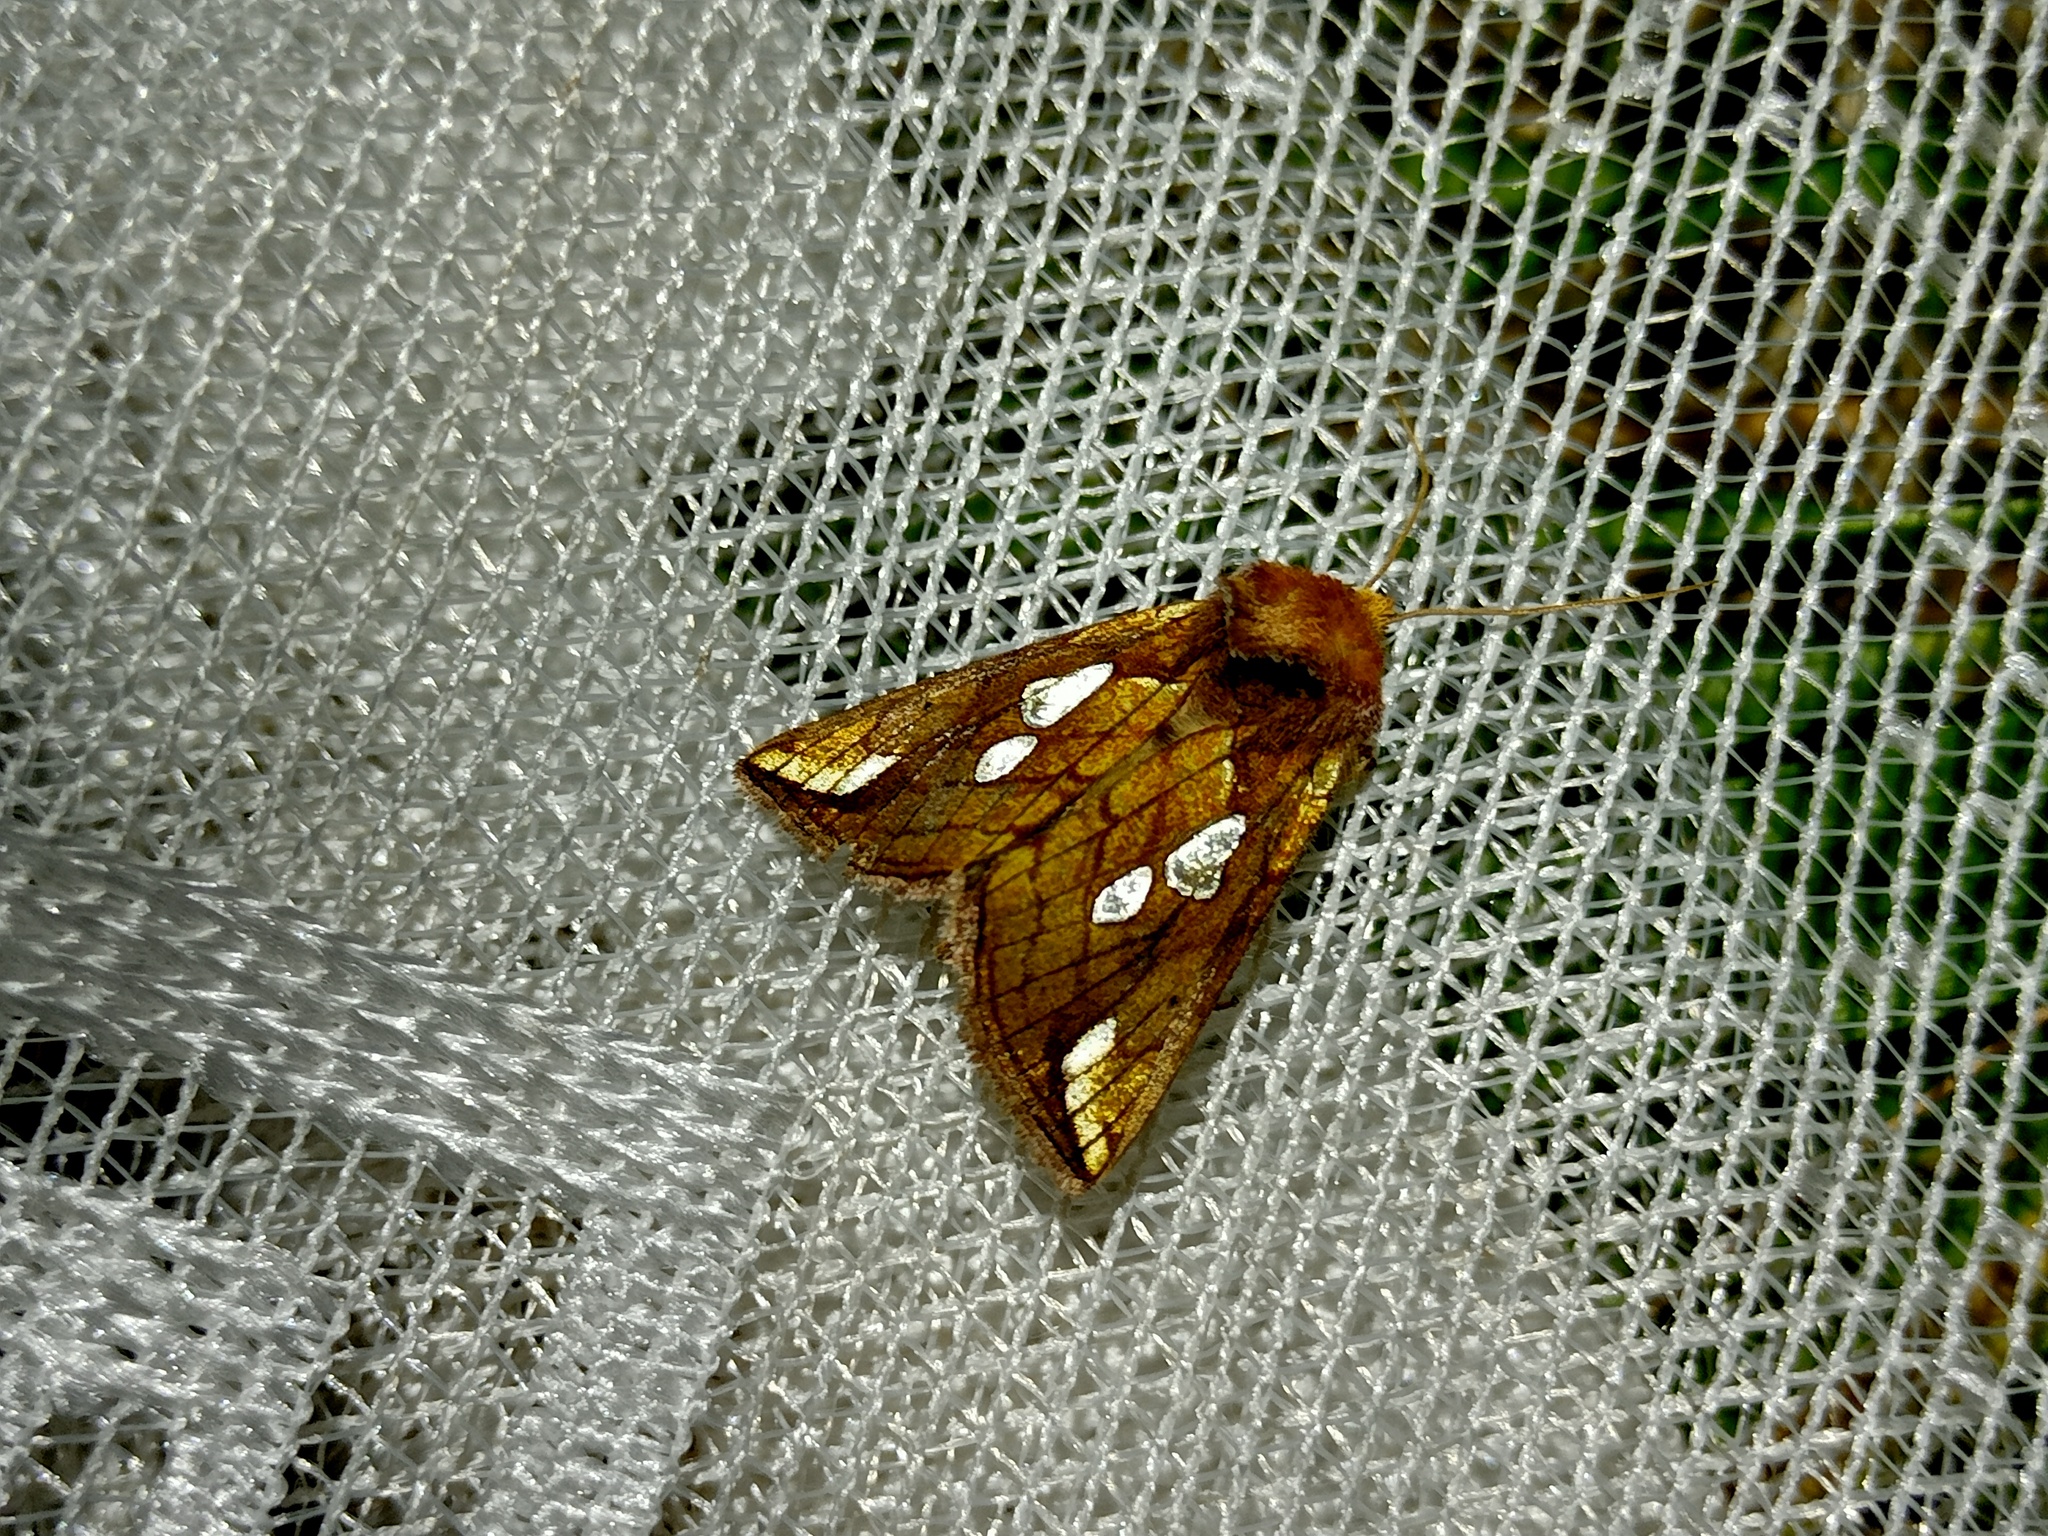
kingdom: Animalia
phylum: Arthropoda
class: Insecta
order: Lepidoptera
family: Noctuidae
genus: Plusia
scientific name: Plusia putnami
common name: Lempke's gold spot
